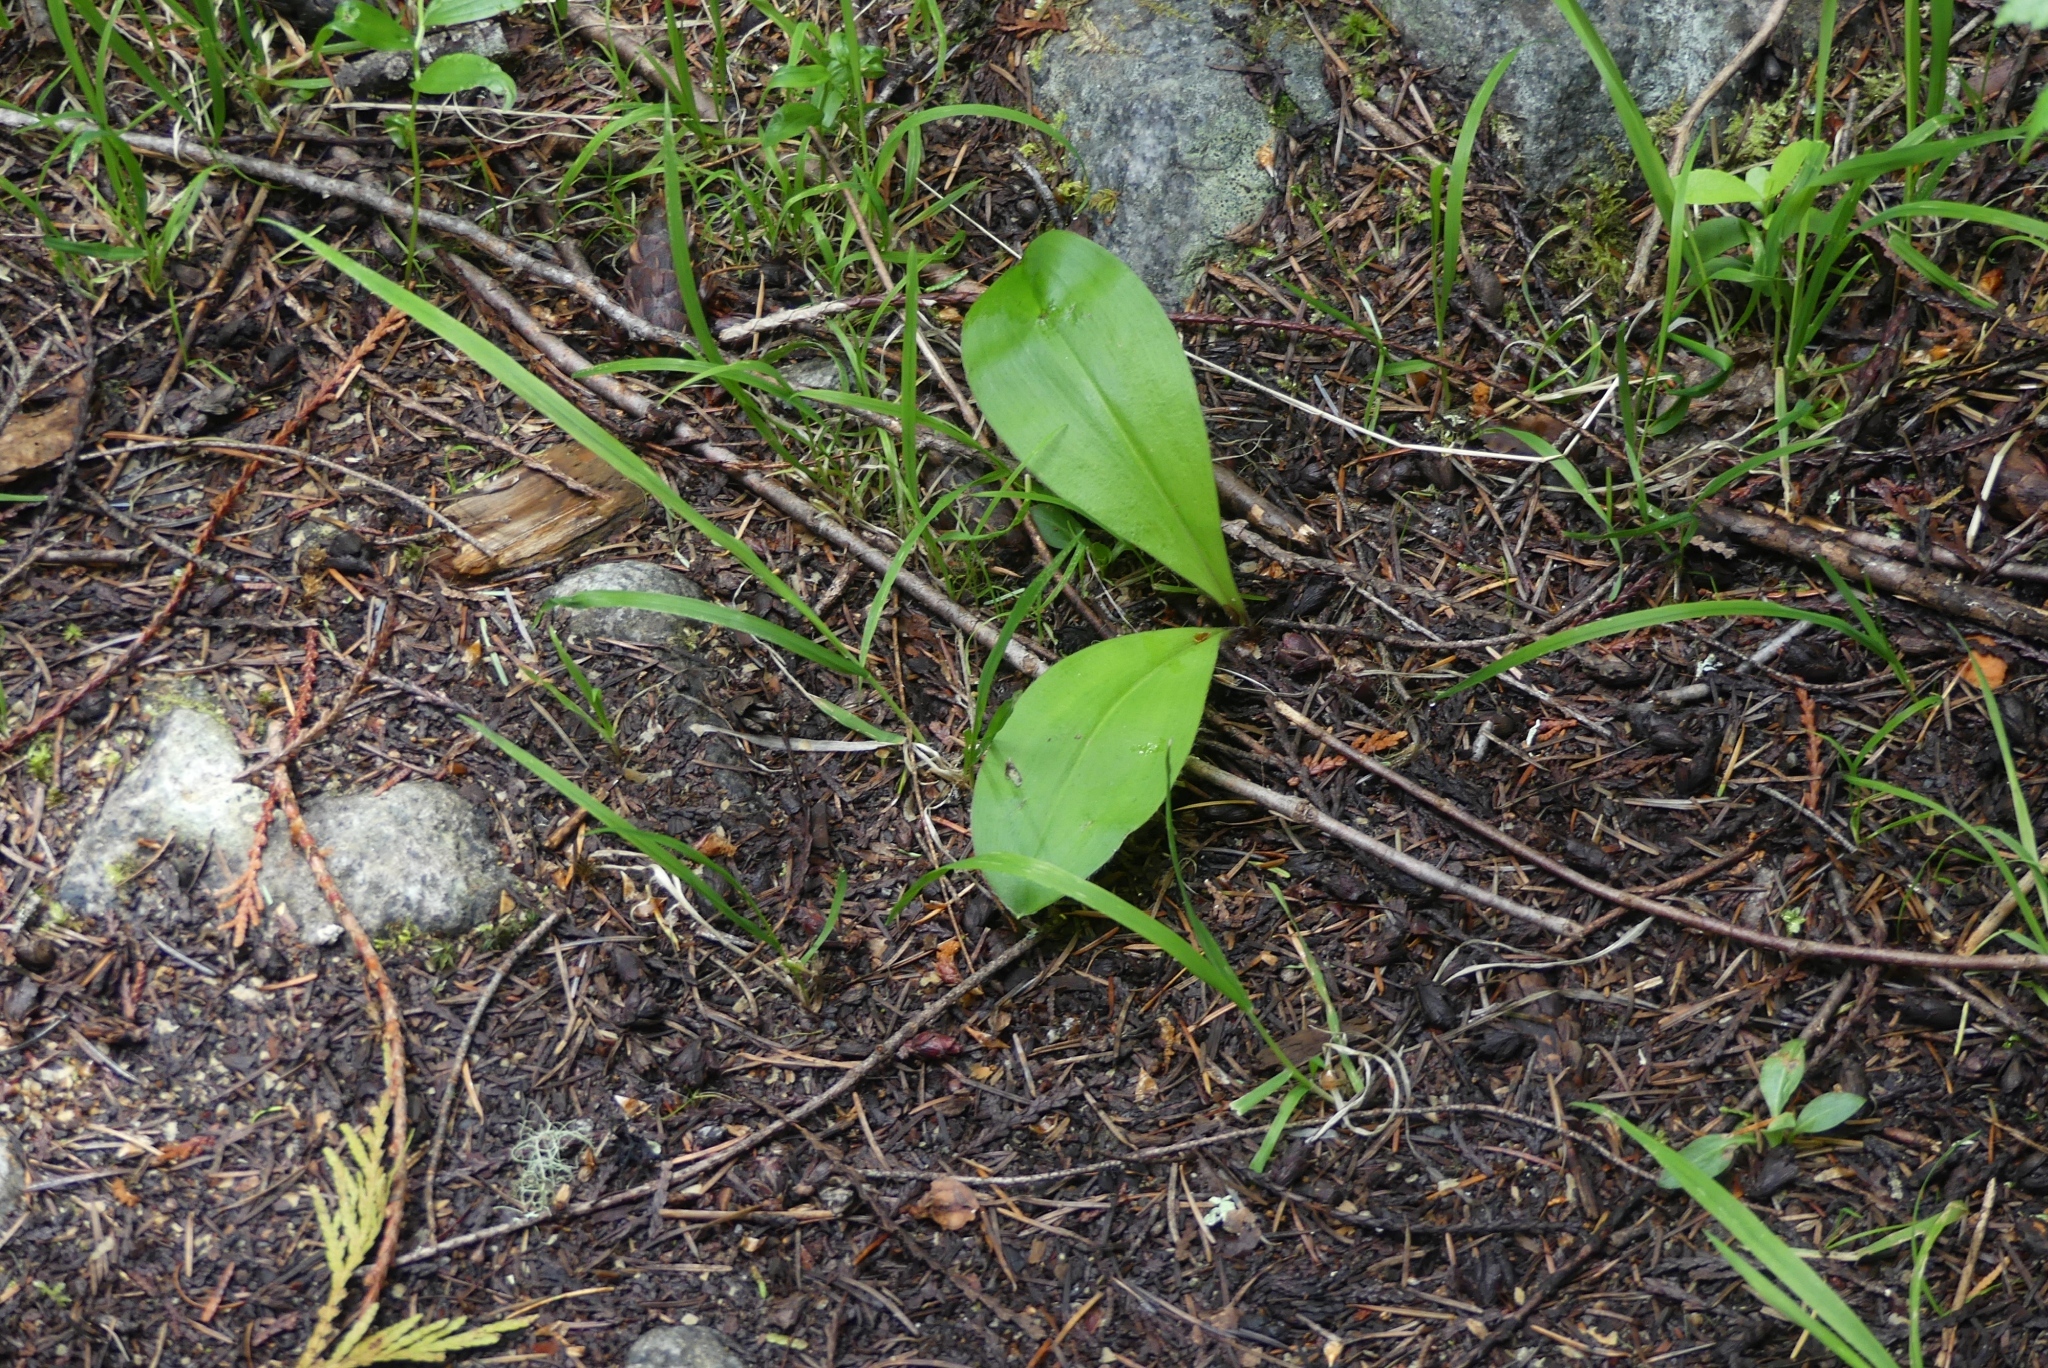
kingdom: Plantae
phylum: Tracheophyta
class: Liliopsida
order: Liliales
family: Liliaceae
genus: Clintonia
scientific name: Clintonia uniflora
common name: Queen's cup
